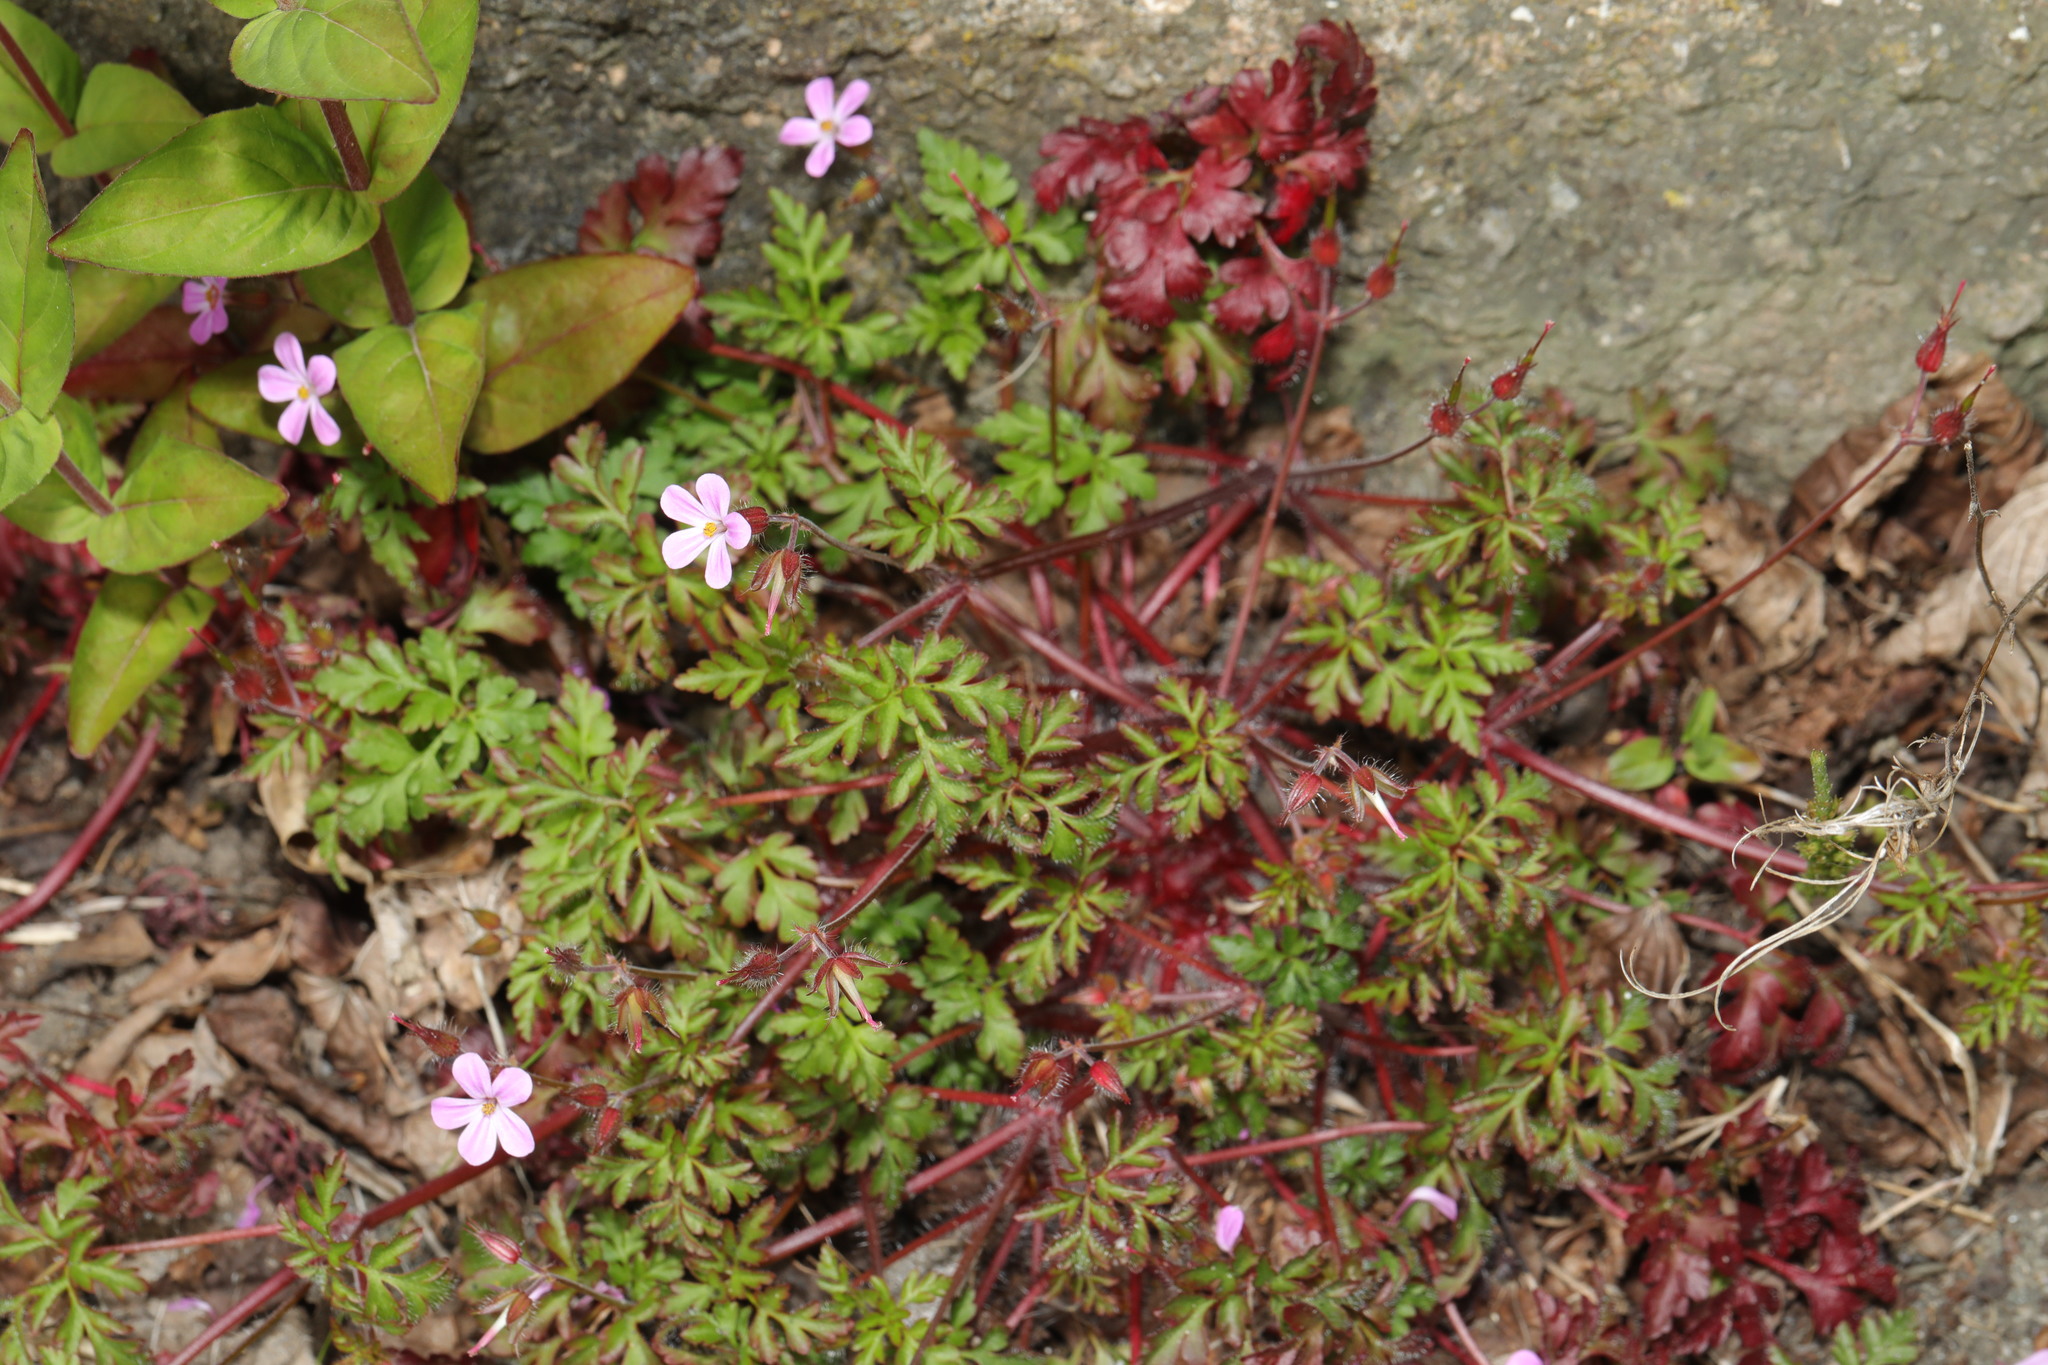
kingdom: Plantae
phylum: Tracheophyta
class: Magnoliopsida
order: Geraniales
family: Geraniaceae
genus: Geranium
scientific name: Geranium robertianum
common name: Herb-robert
